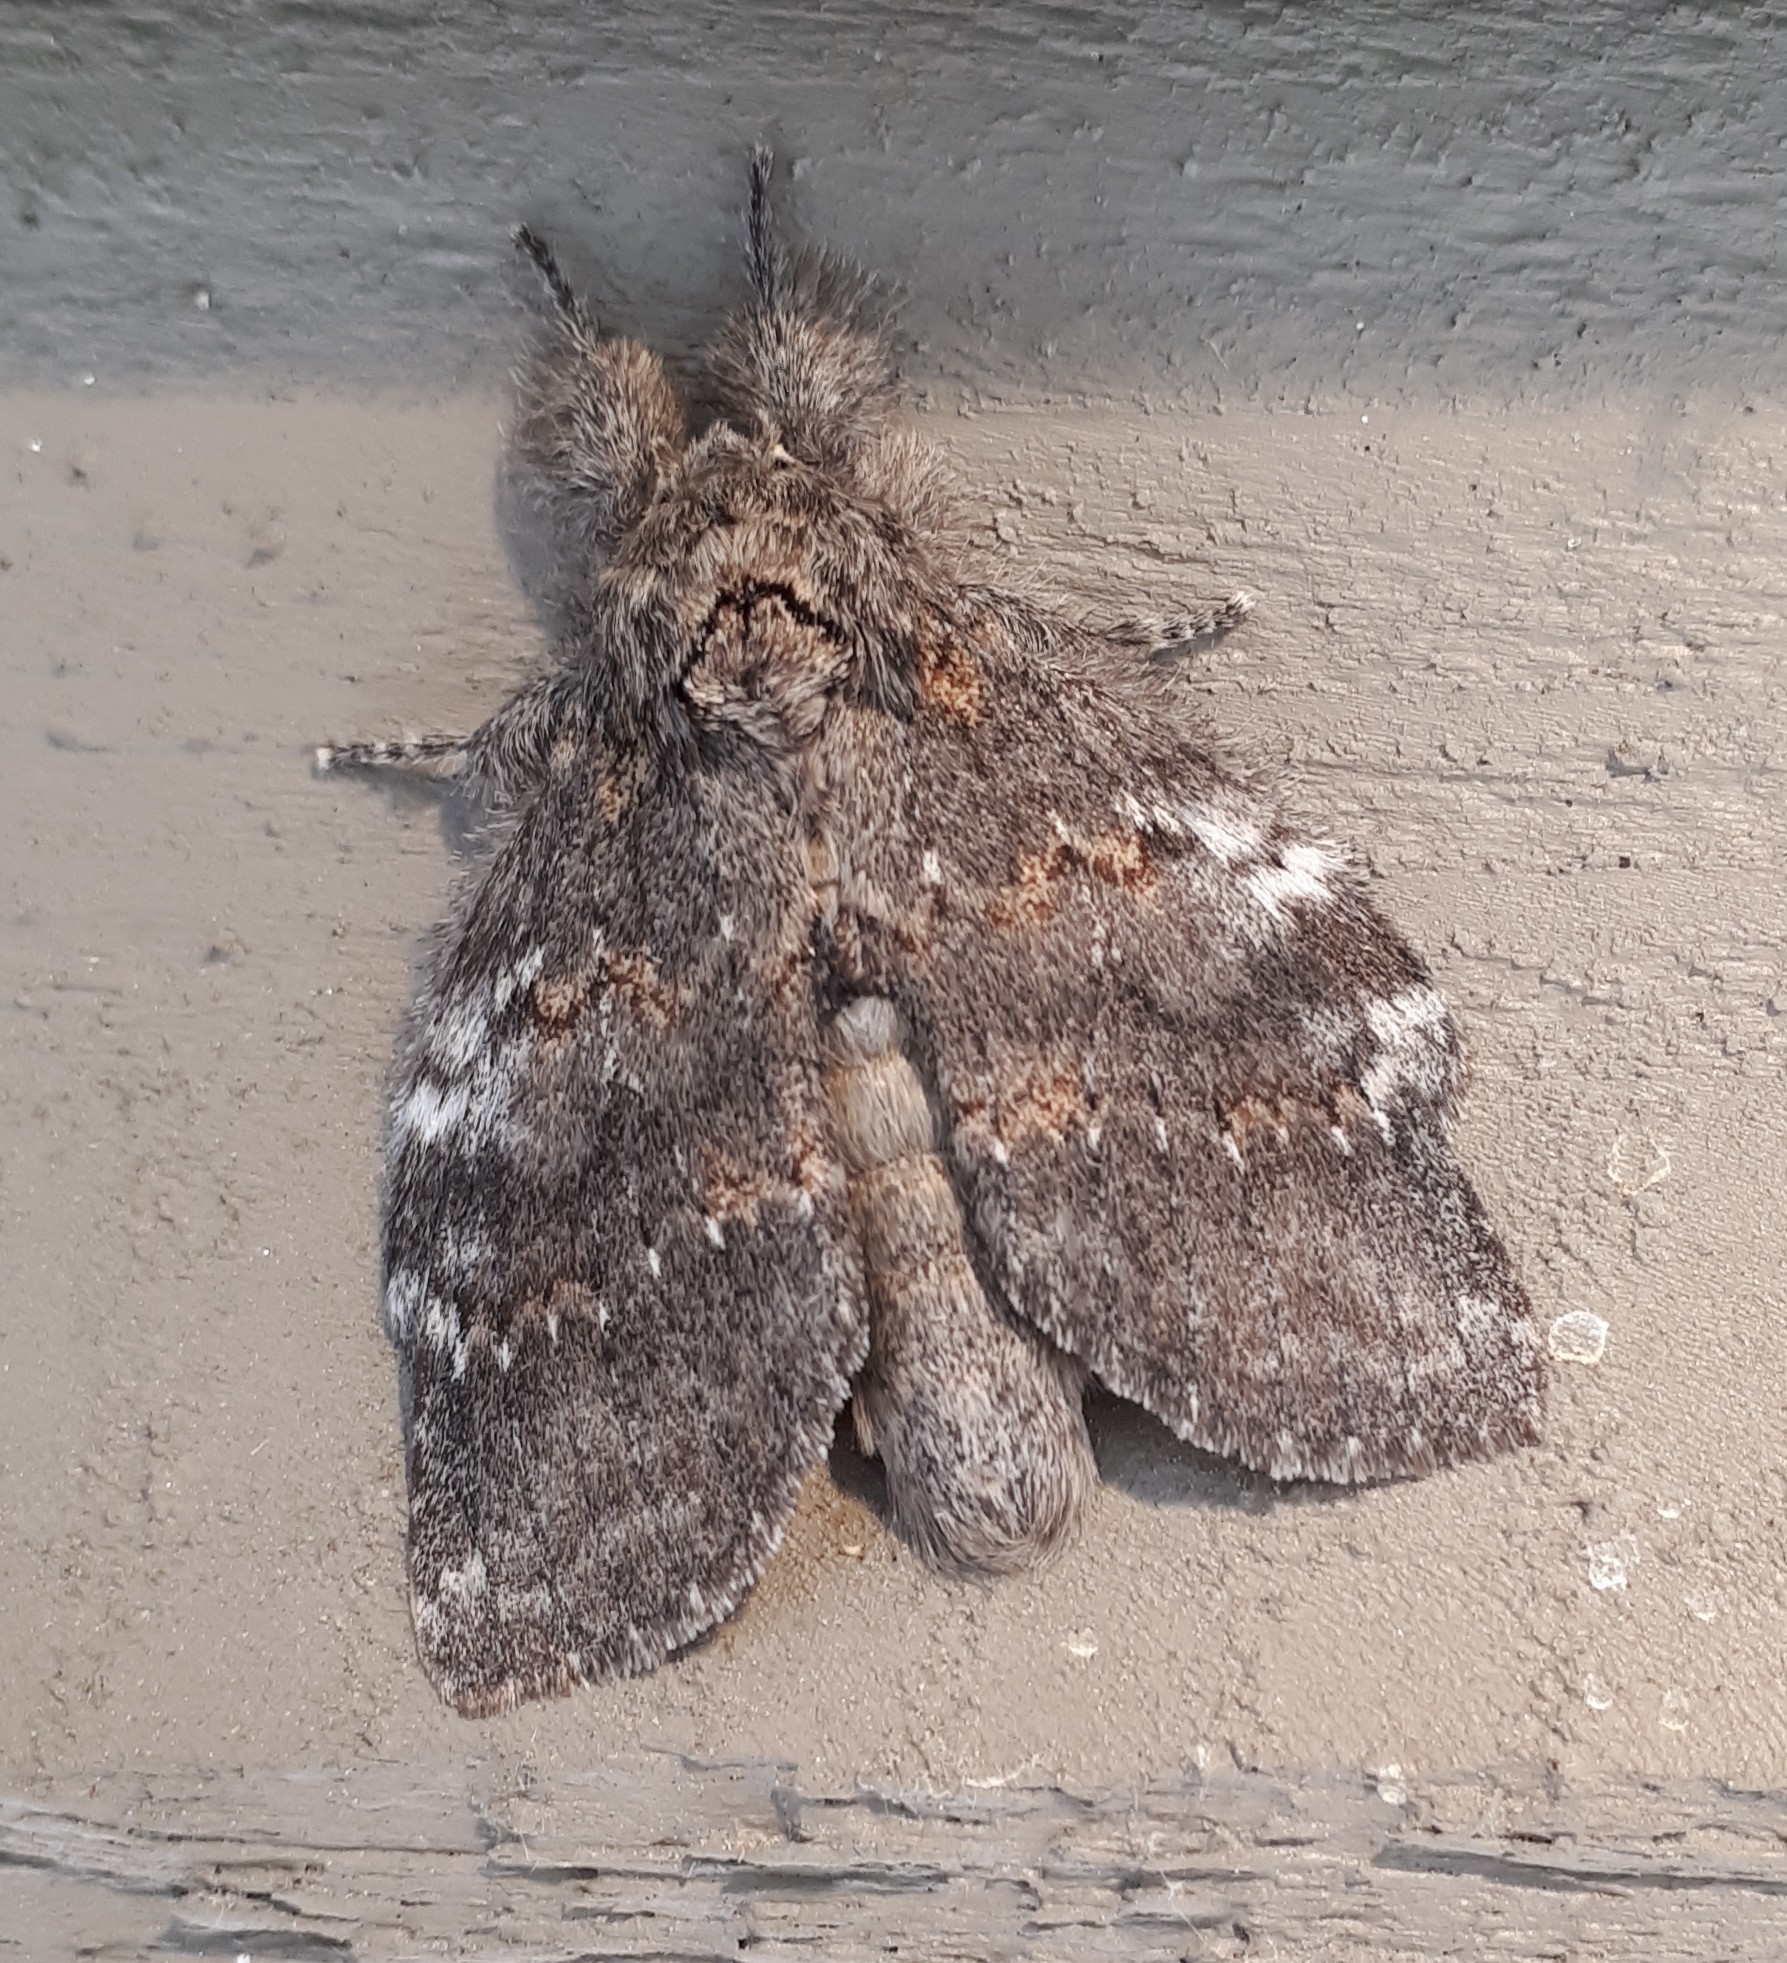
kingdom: Animalia
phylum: Arthropoda
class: Insecta
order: Lepidoptera
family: Notodontidae
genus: Peridea
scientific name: Peridea angulosa
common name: Angulose prominent
